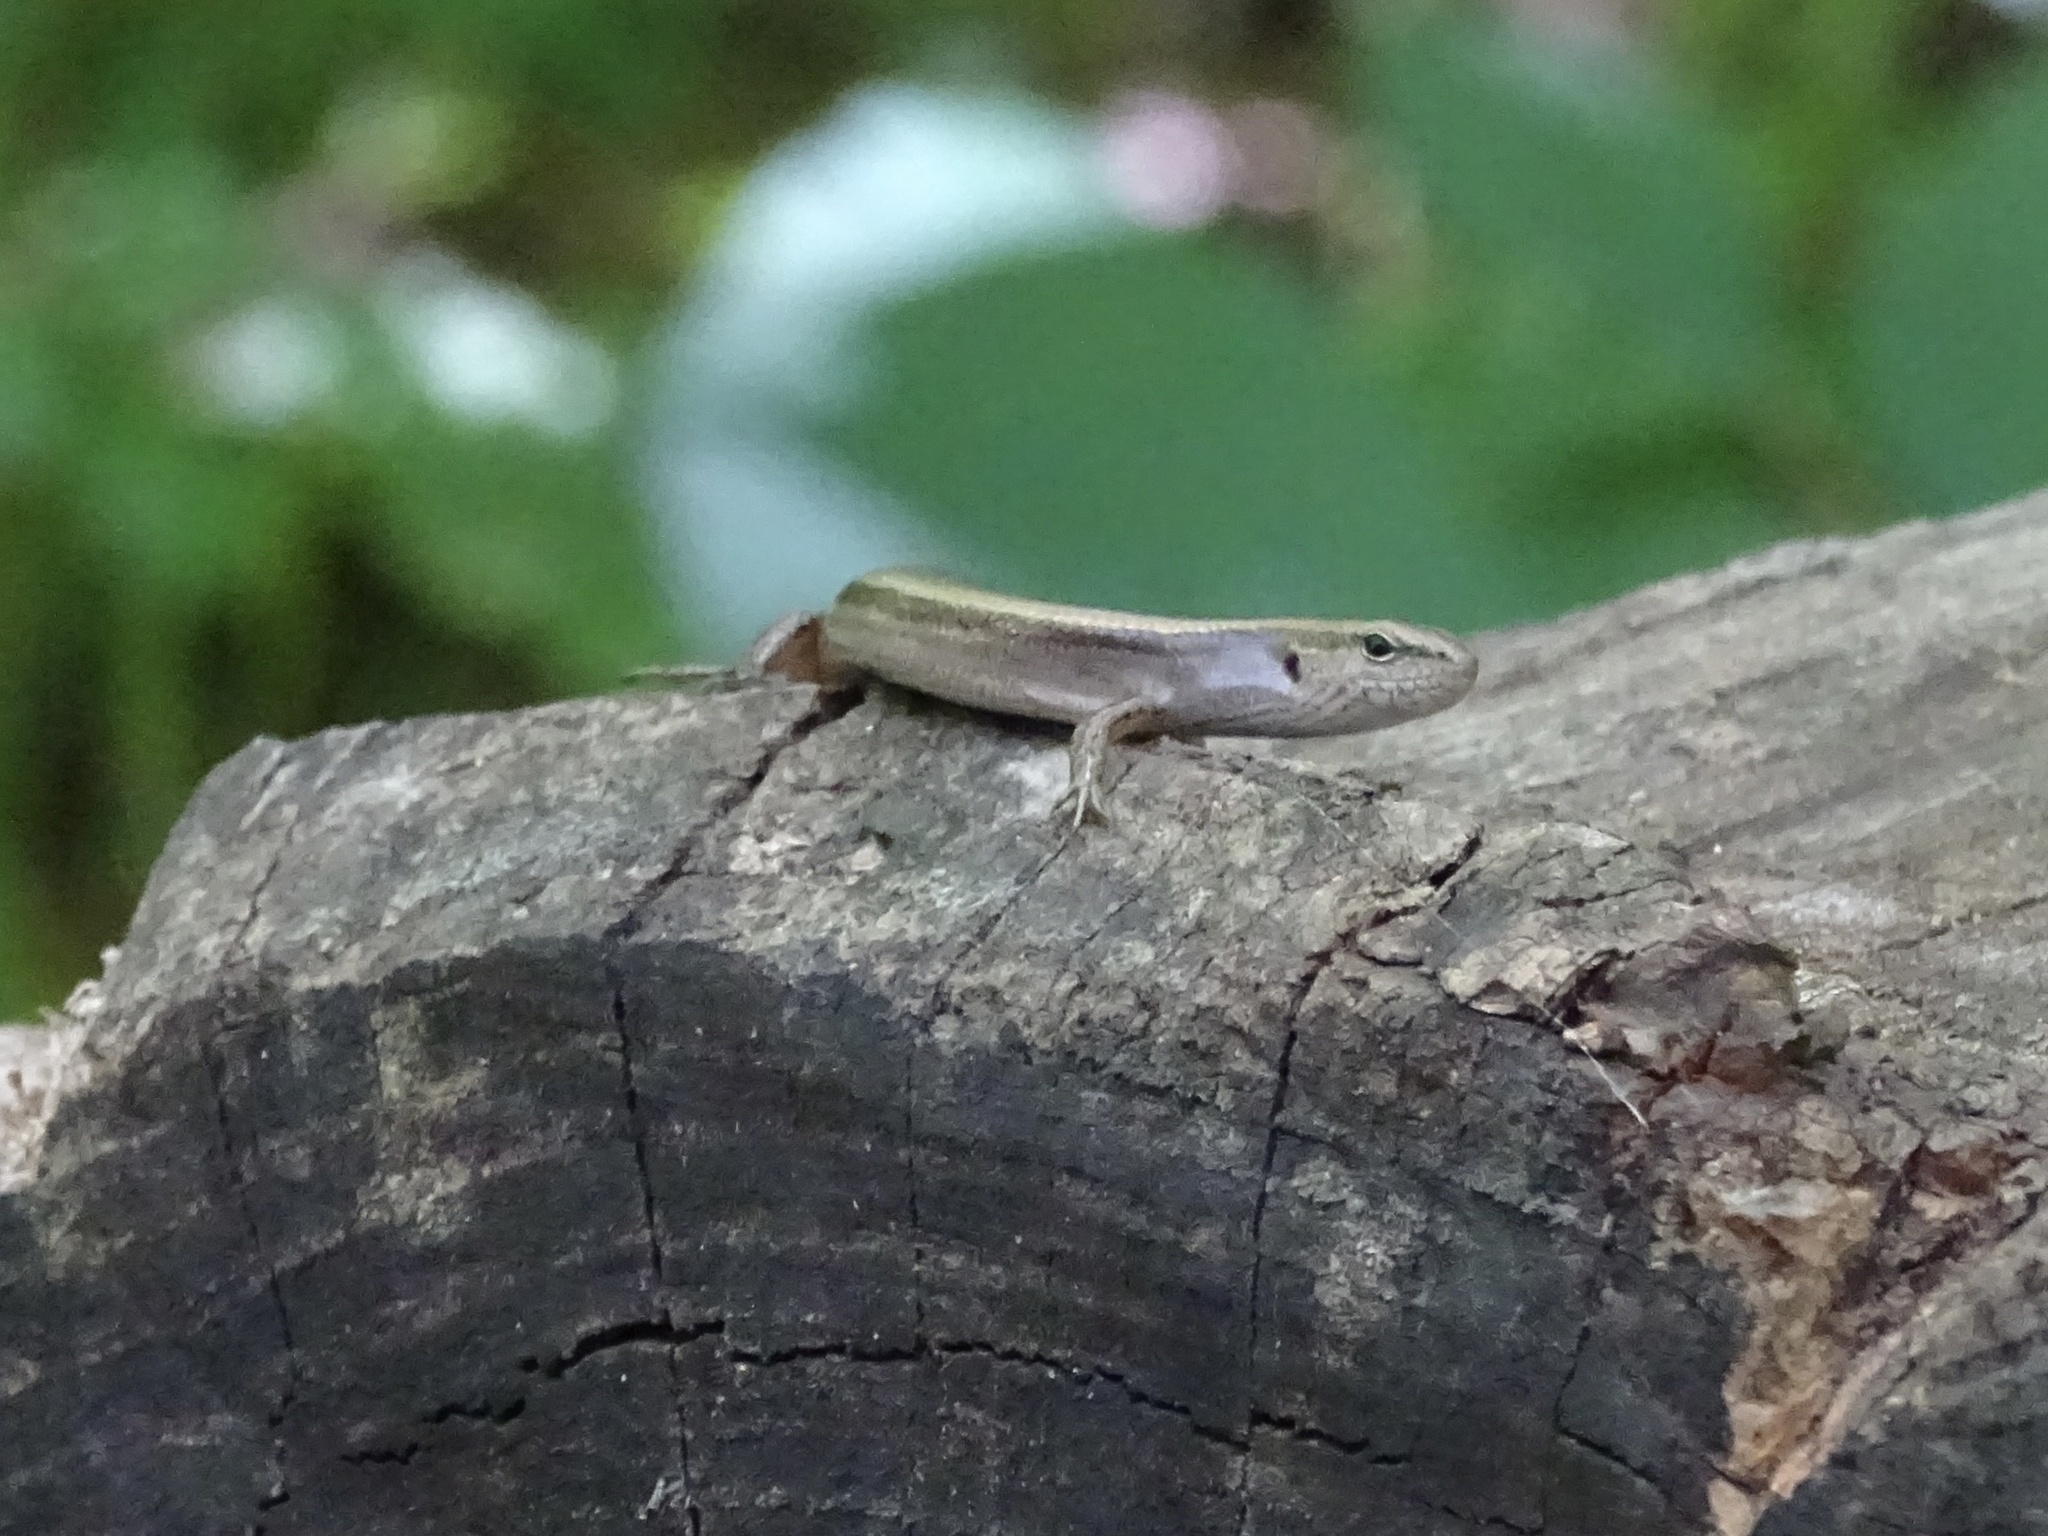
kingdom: Animalia
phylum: Chordata
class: Squamata
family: Scincidae
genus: Scincella
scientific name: Scincella lateralis
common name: Ground skink
